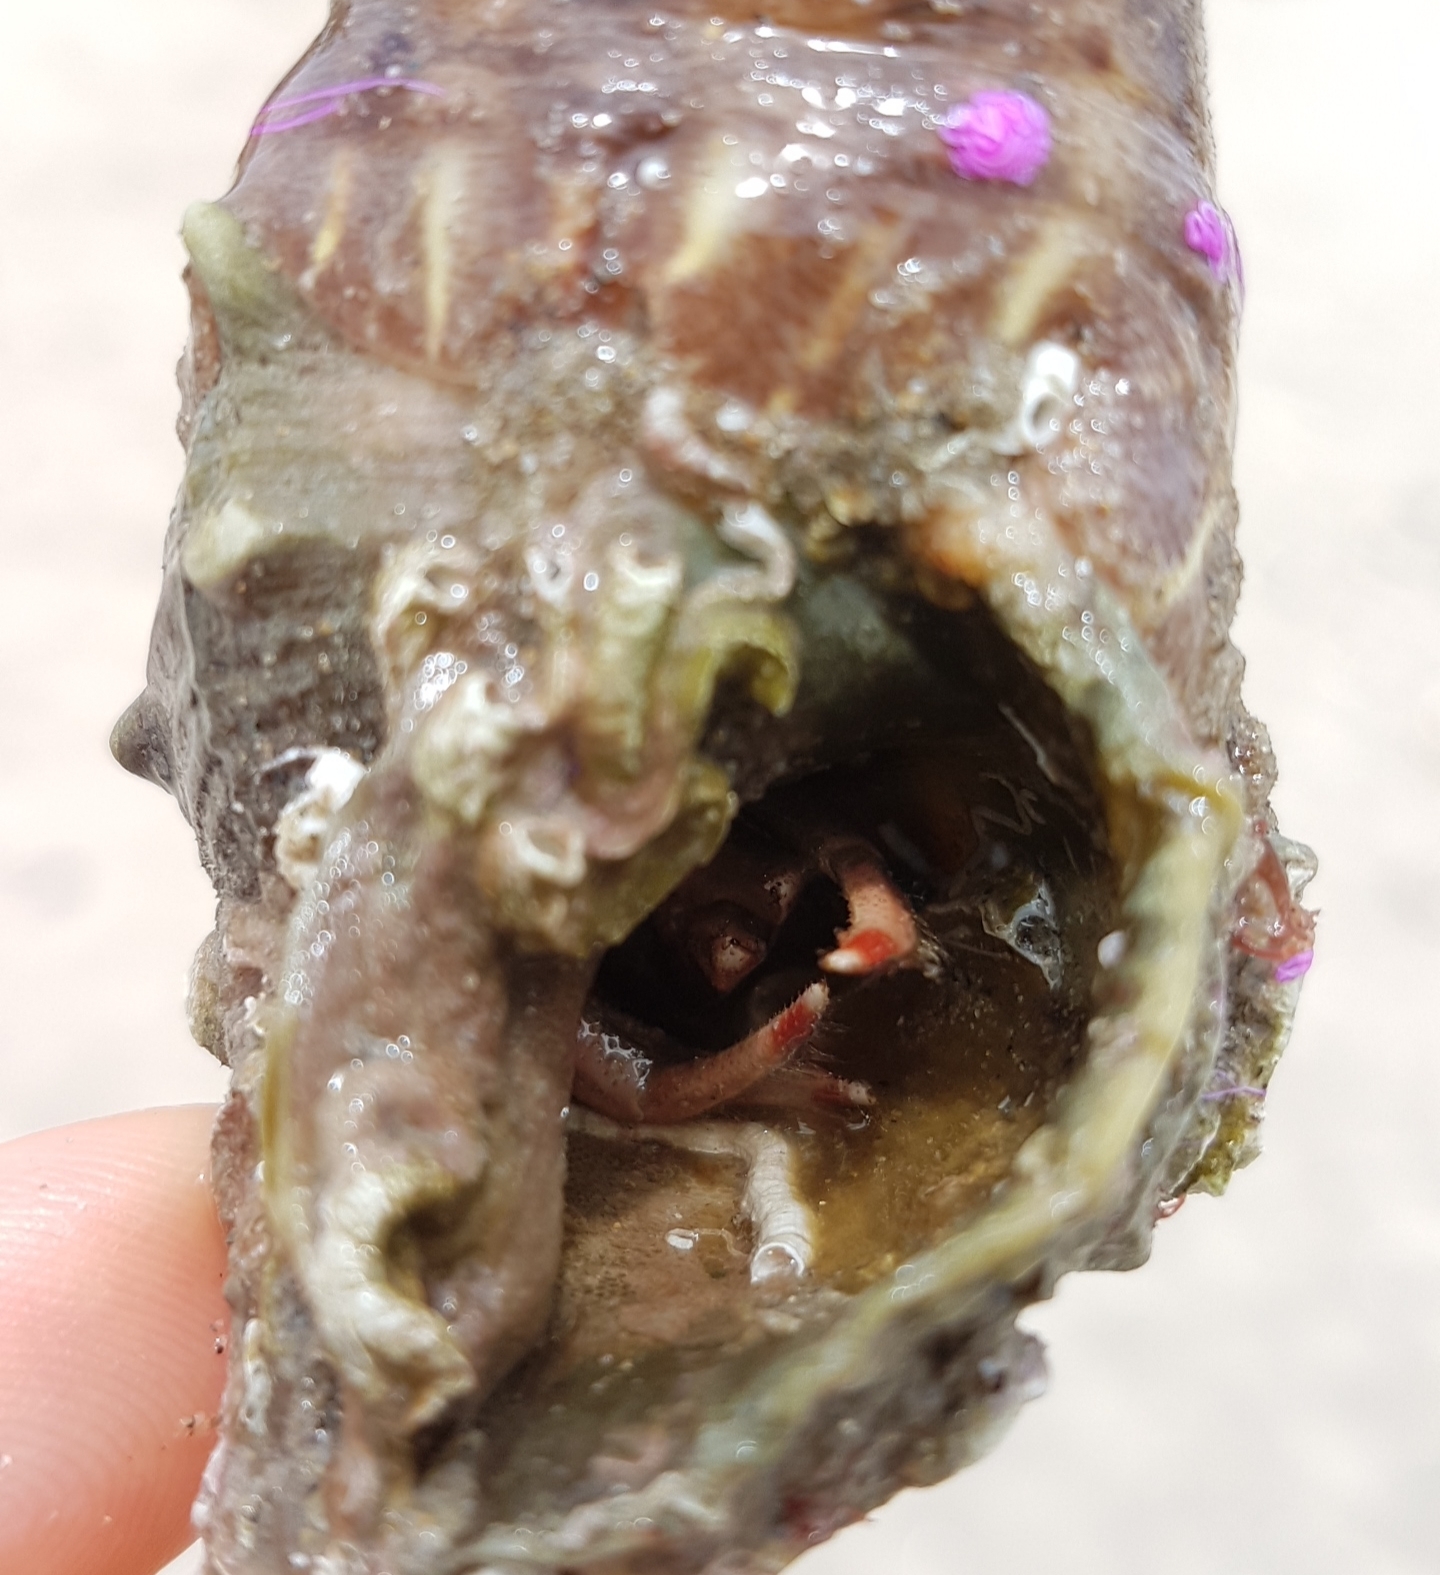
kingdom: Animalia
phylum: Arthropoda
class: Malacostraca
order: Decapoda
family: Diogenidae
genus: Paguristes
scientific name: Paguristes eremita
